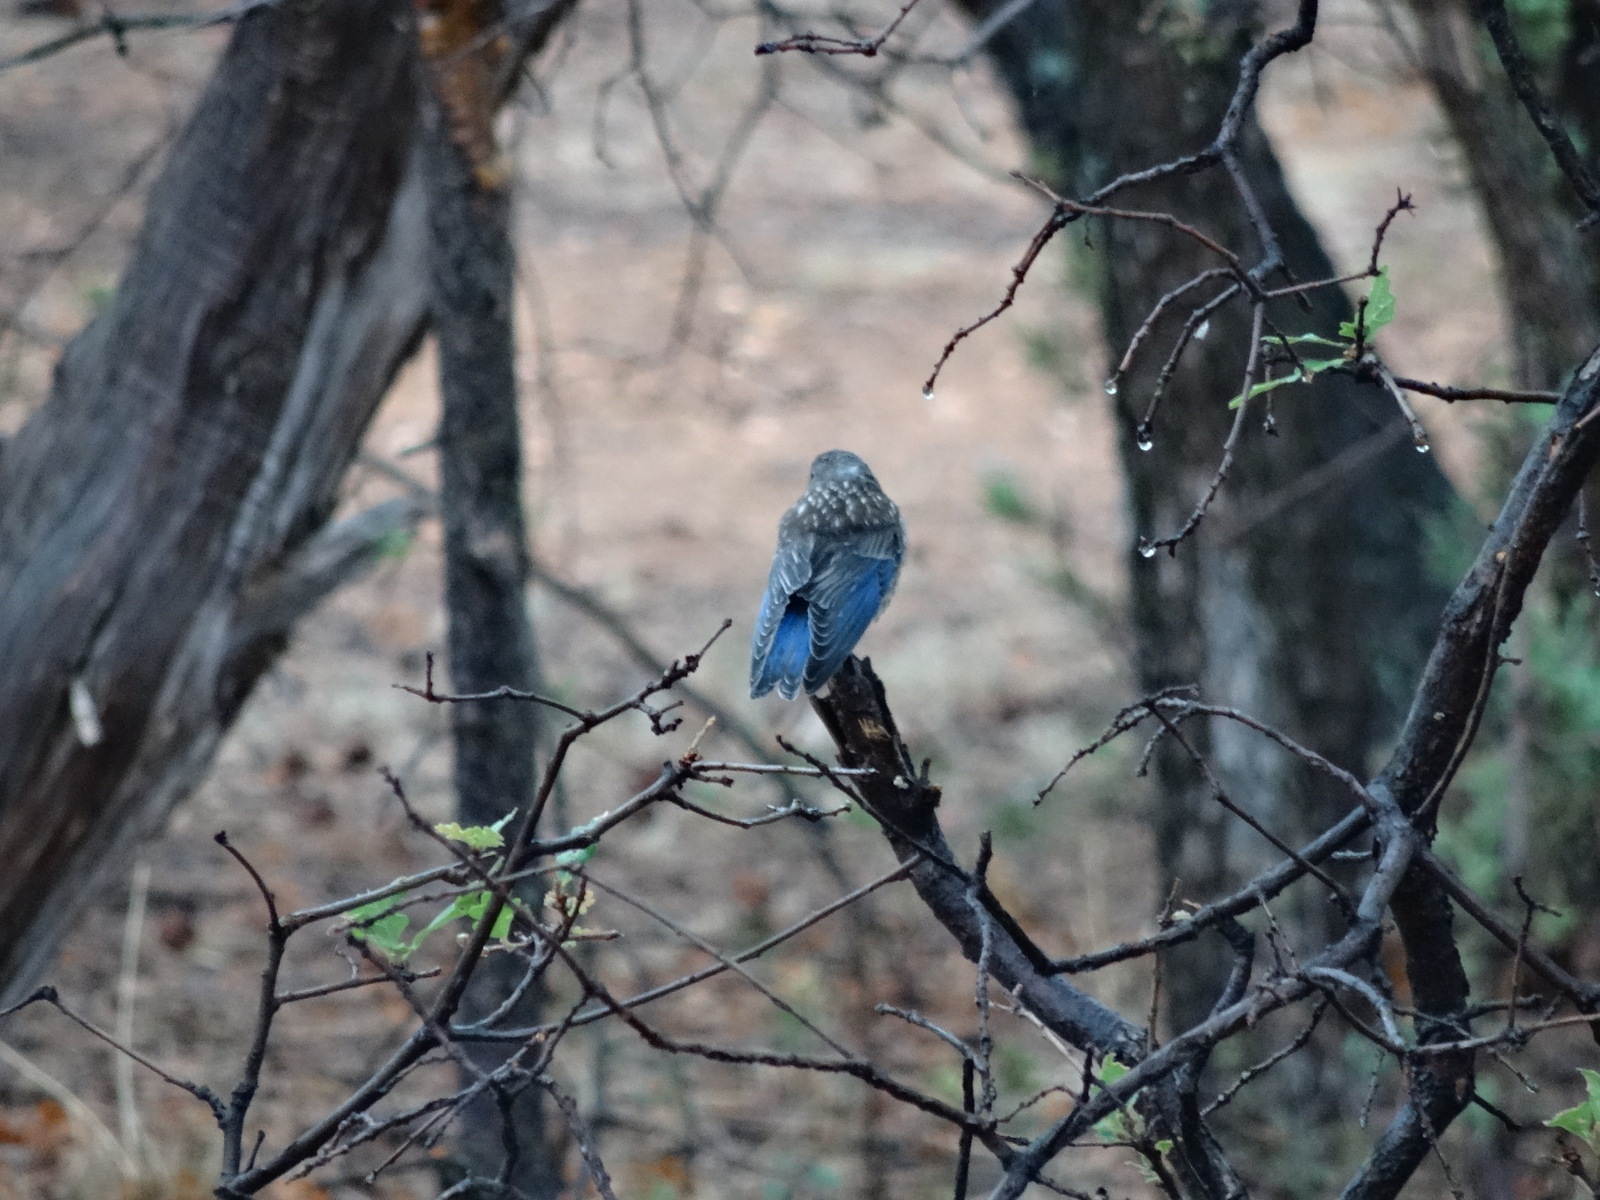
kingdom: Animalia
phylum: Chordata
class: Aves
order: Passeriformes
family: Turdidae
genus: Sialia
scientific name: Sialia mexicana
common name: Western bluebird
